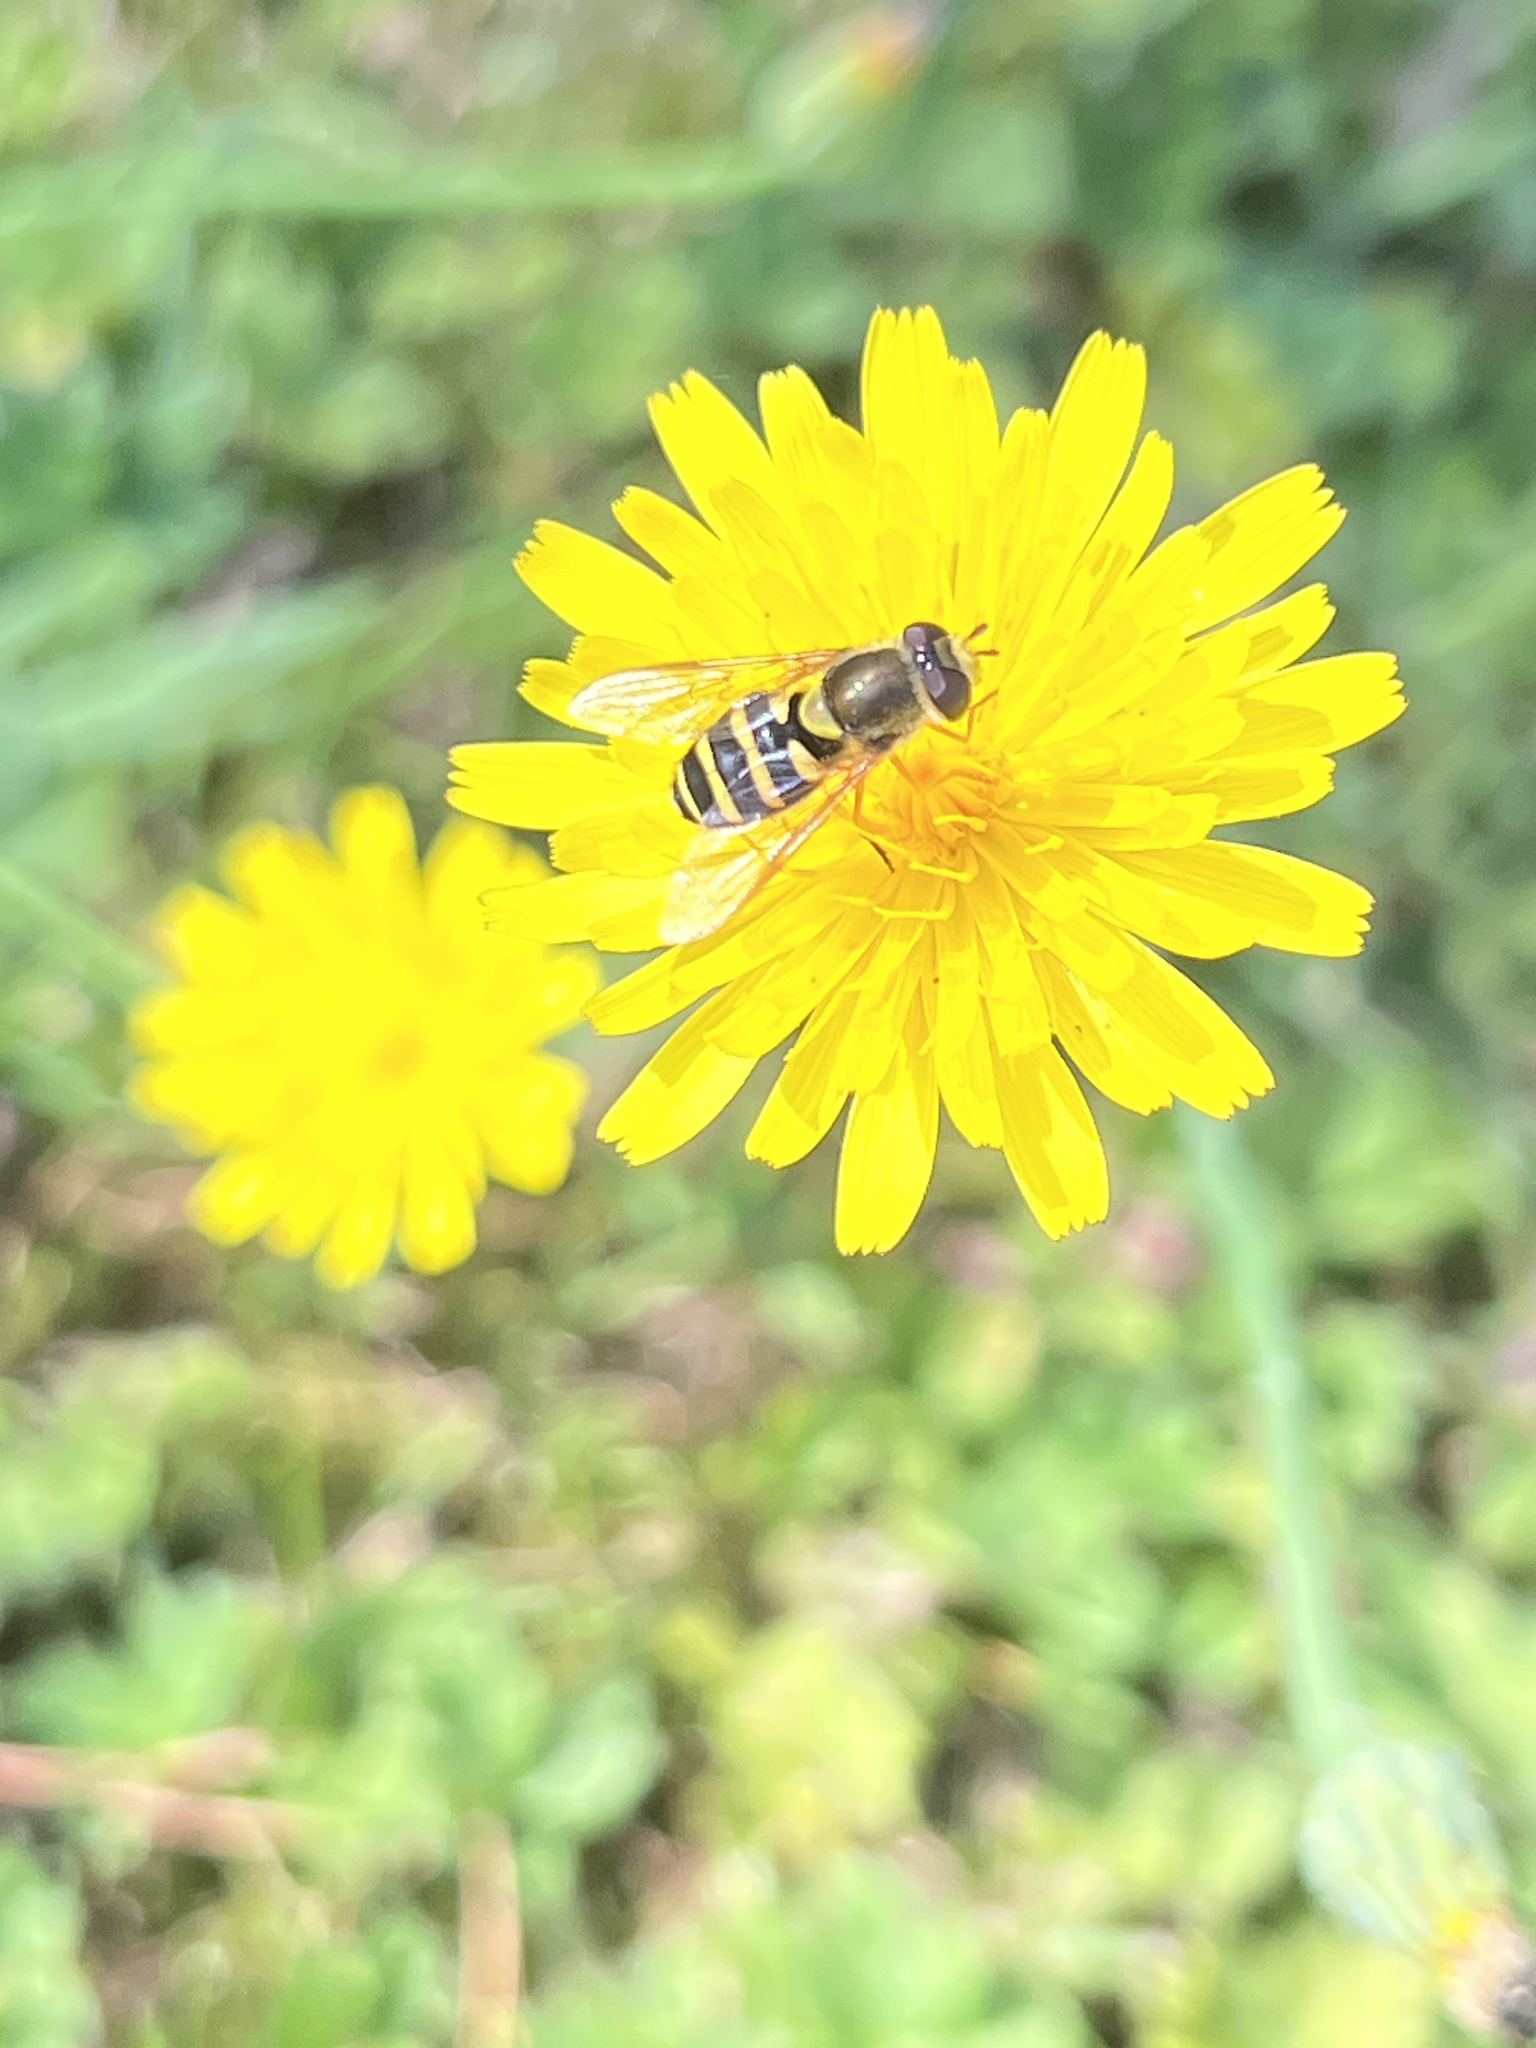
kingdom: Animalia
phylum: Arthropoda
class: Insecta
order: Diptera
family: Syrphidae
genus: Syrphus
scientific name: Syrphus opinator
